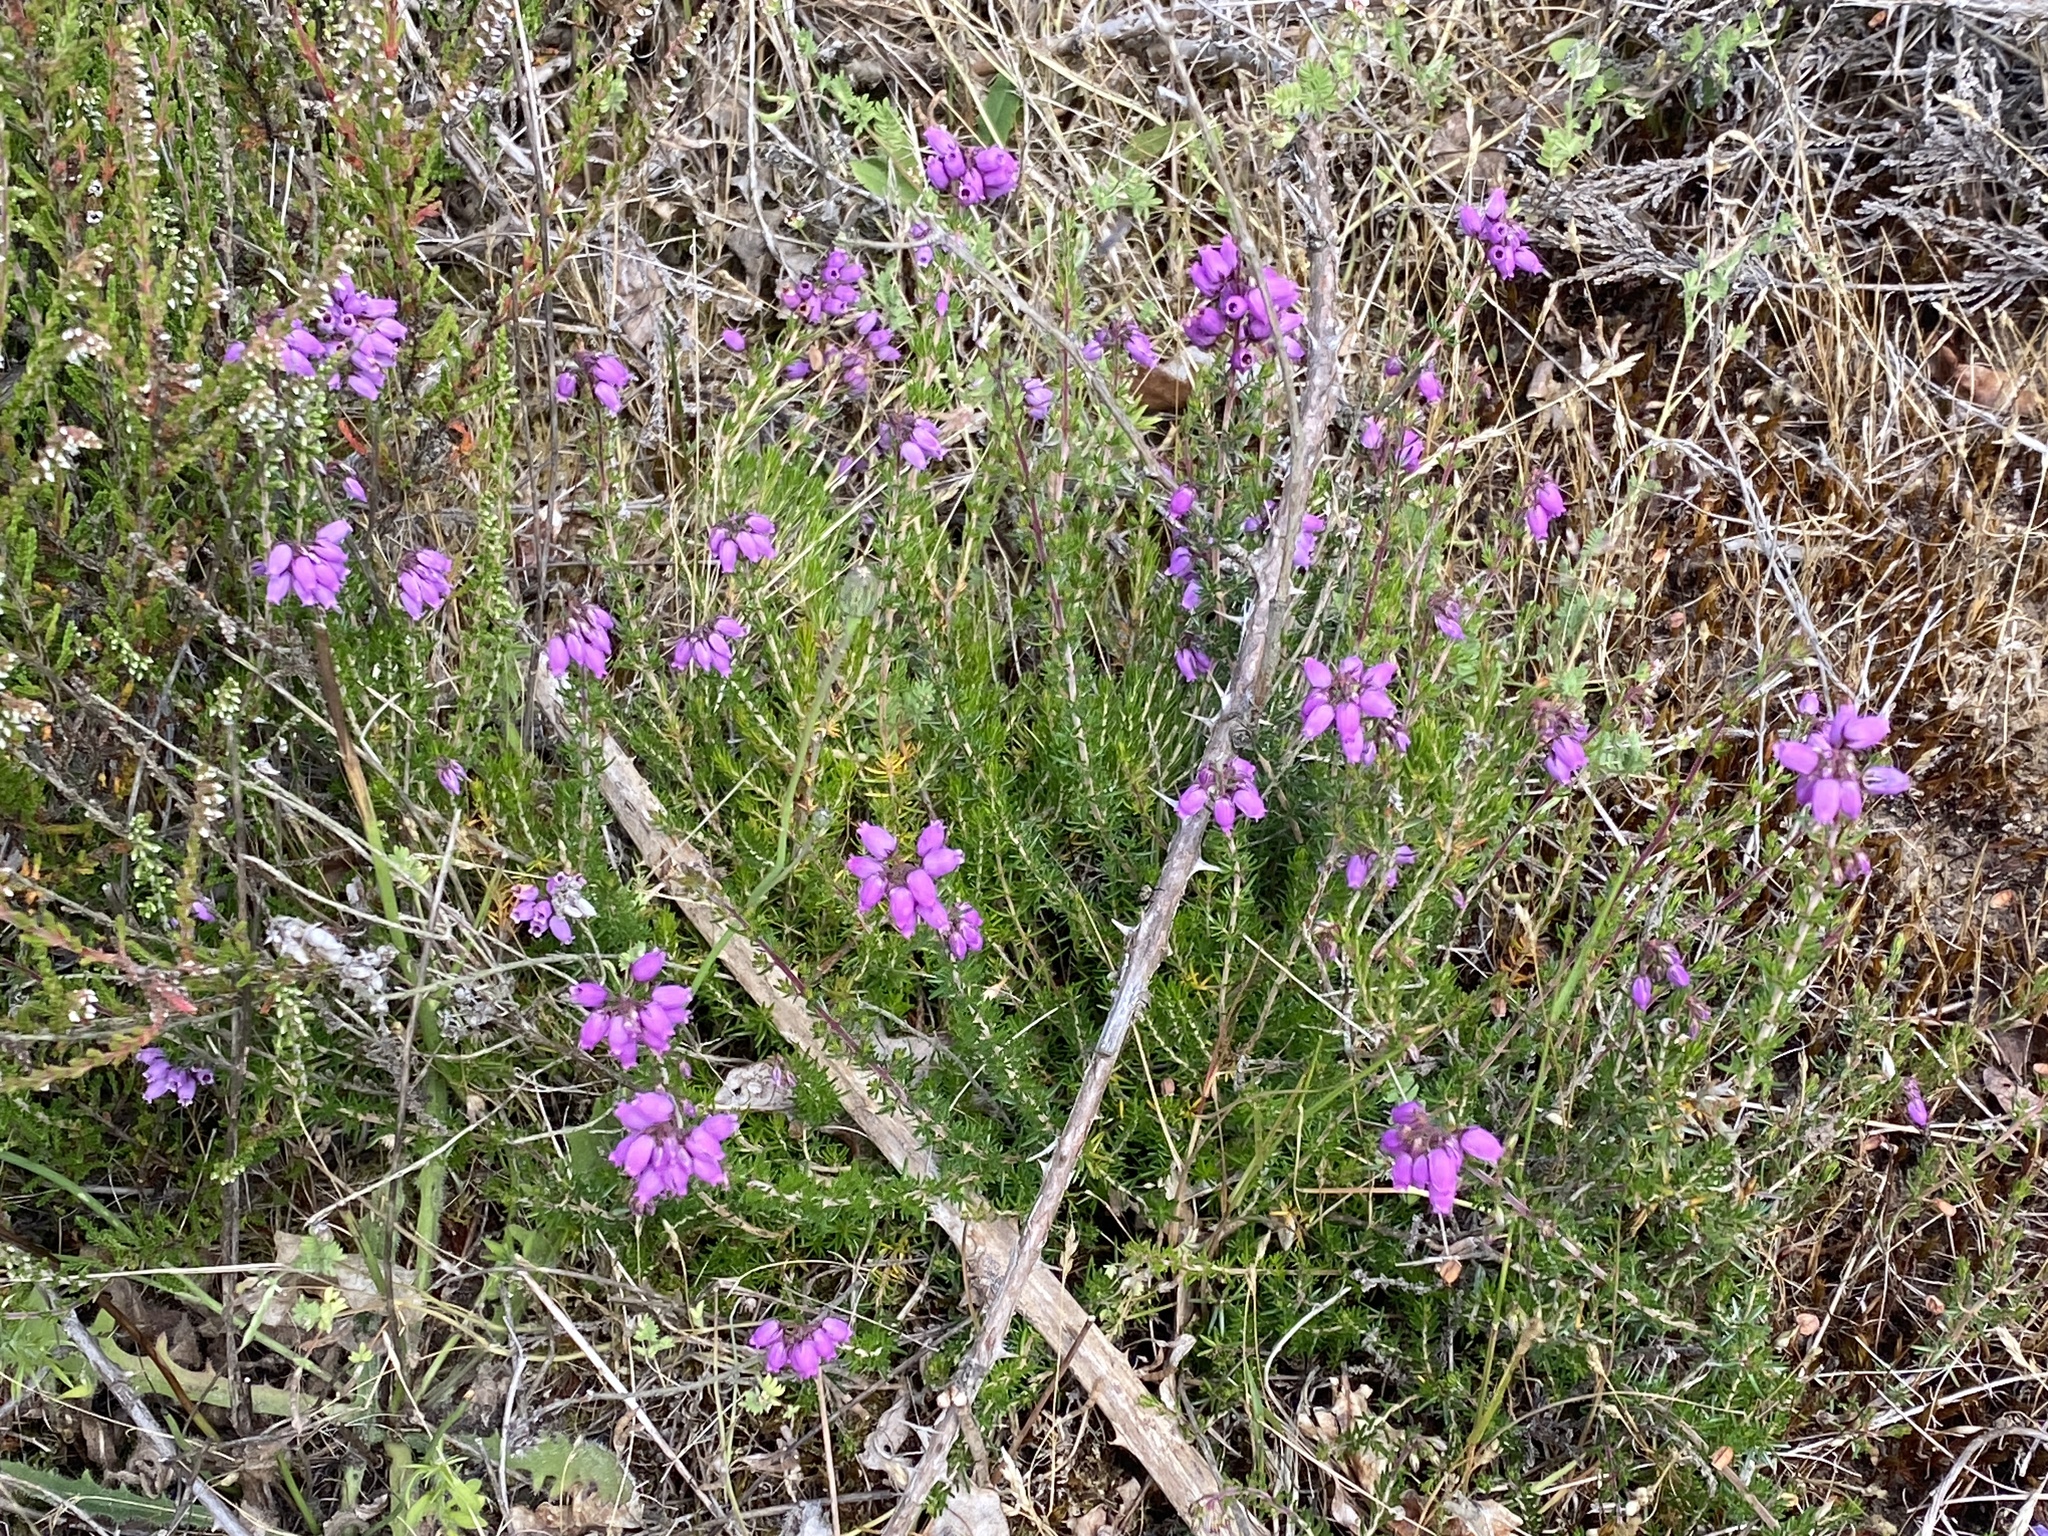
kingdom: Plantae
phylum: Tracheophyta
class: Magnoliopsida
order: Ericales
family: Ericaceae
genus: Erica
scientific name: Erica cinerea
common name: Bell heather
